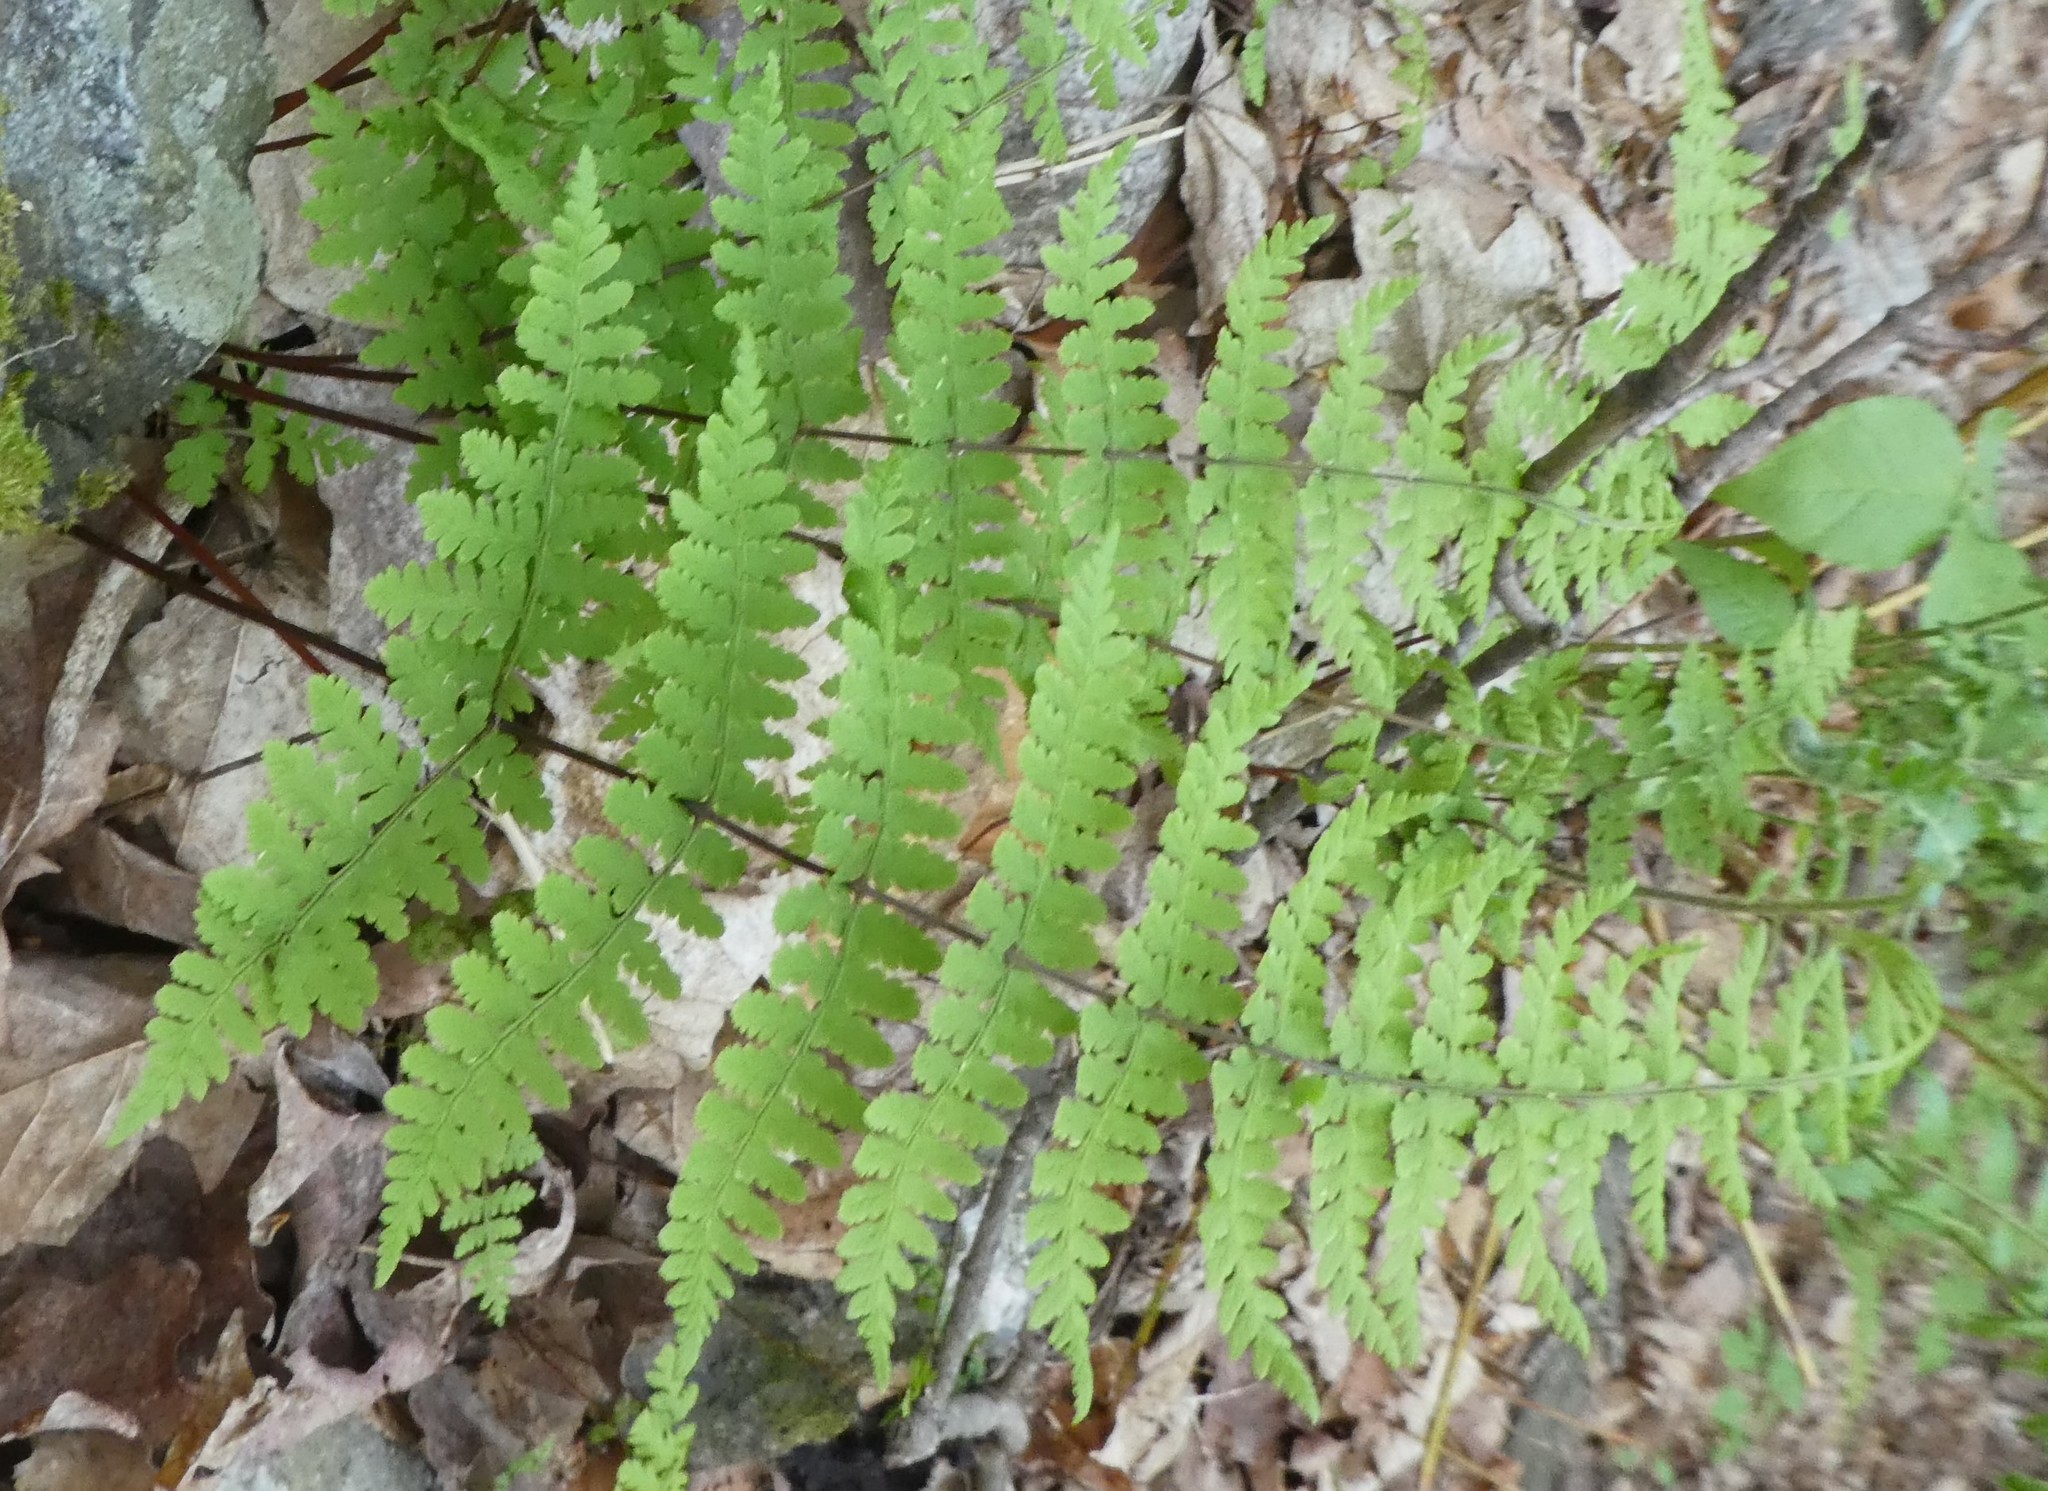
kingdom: Plantae
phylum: Tracheophyta
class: Polypodiopsida
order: Polypodiales
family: Cystopteridaceae
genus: Cystopteris
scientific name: Cystopteris bulbifera
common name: Bulblet bladder fern
